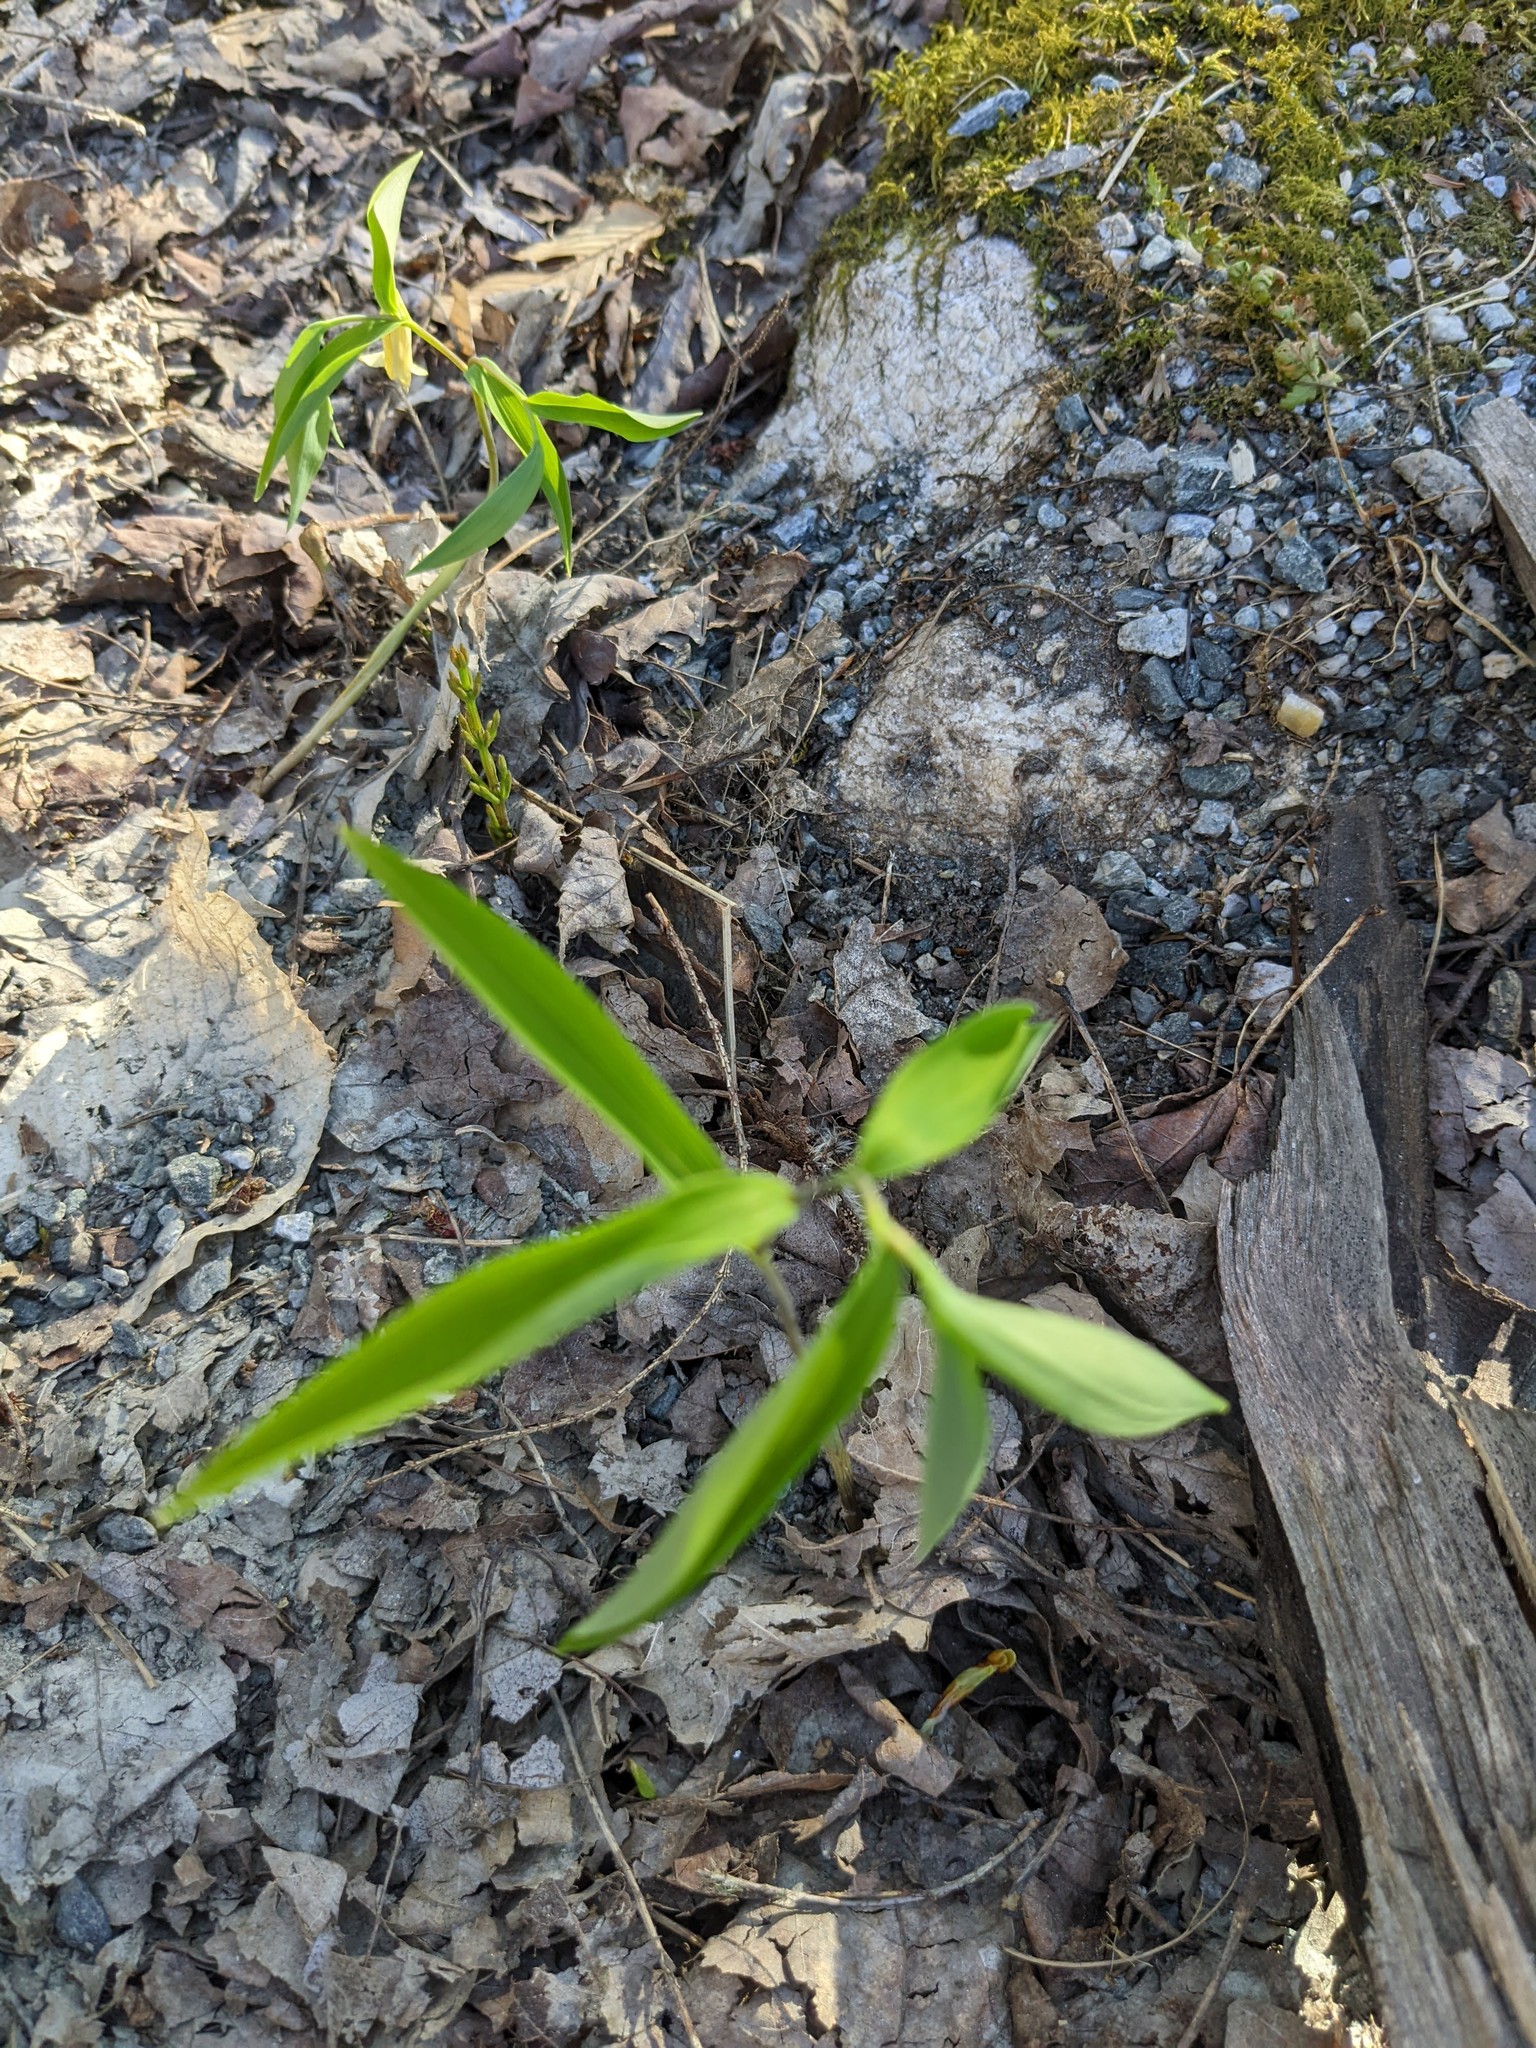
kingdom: Plantae
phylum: Tracheophyta
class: Liliopsida
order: Liliales
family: Colchicaceae
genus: Uvularia
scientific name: Uvularia sessilifolia
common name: Straw-lily
